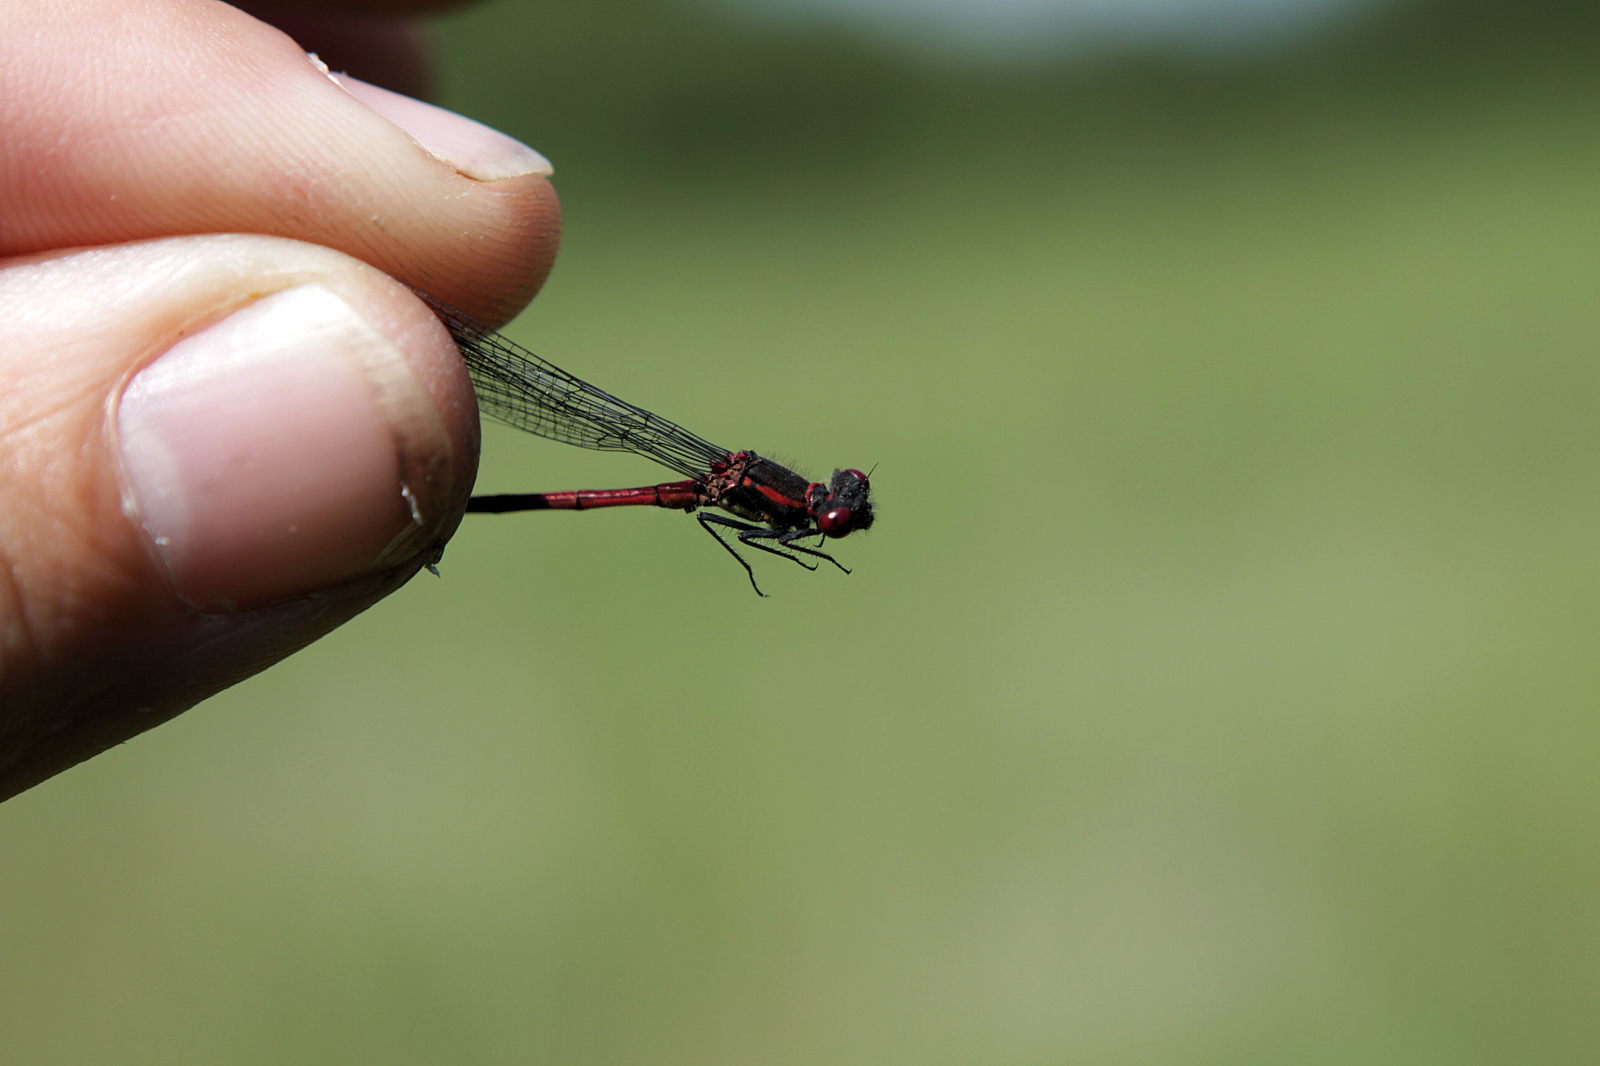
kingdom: Animalia
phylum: Arthropoda
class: Insecta
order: Odonata
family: Coenagrionidae
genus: Pyrrhosoma
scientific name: Pyrrhosoma nymphula
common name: Large red damsel
